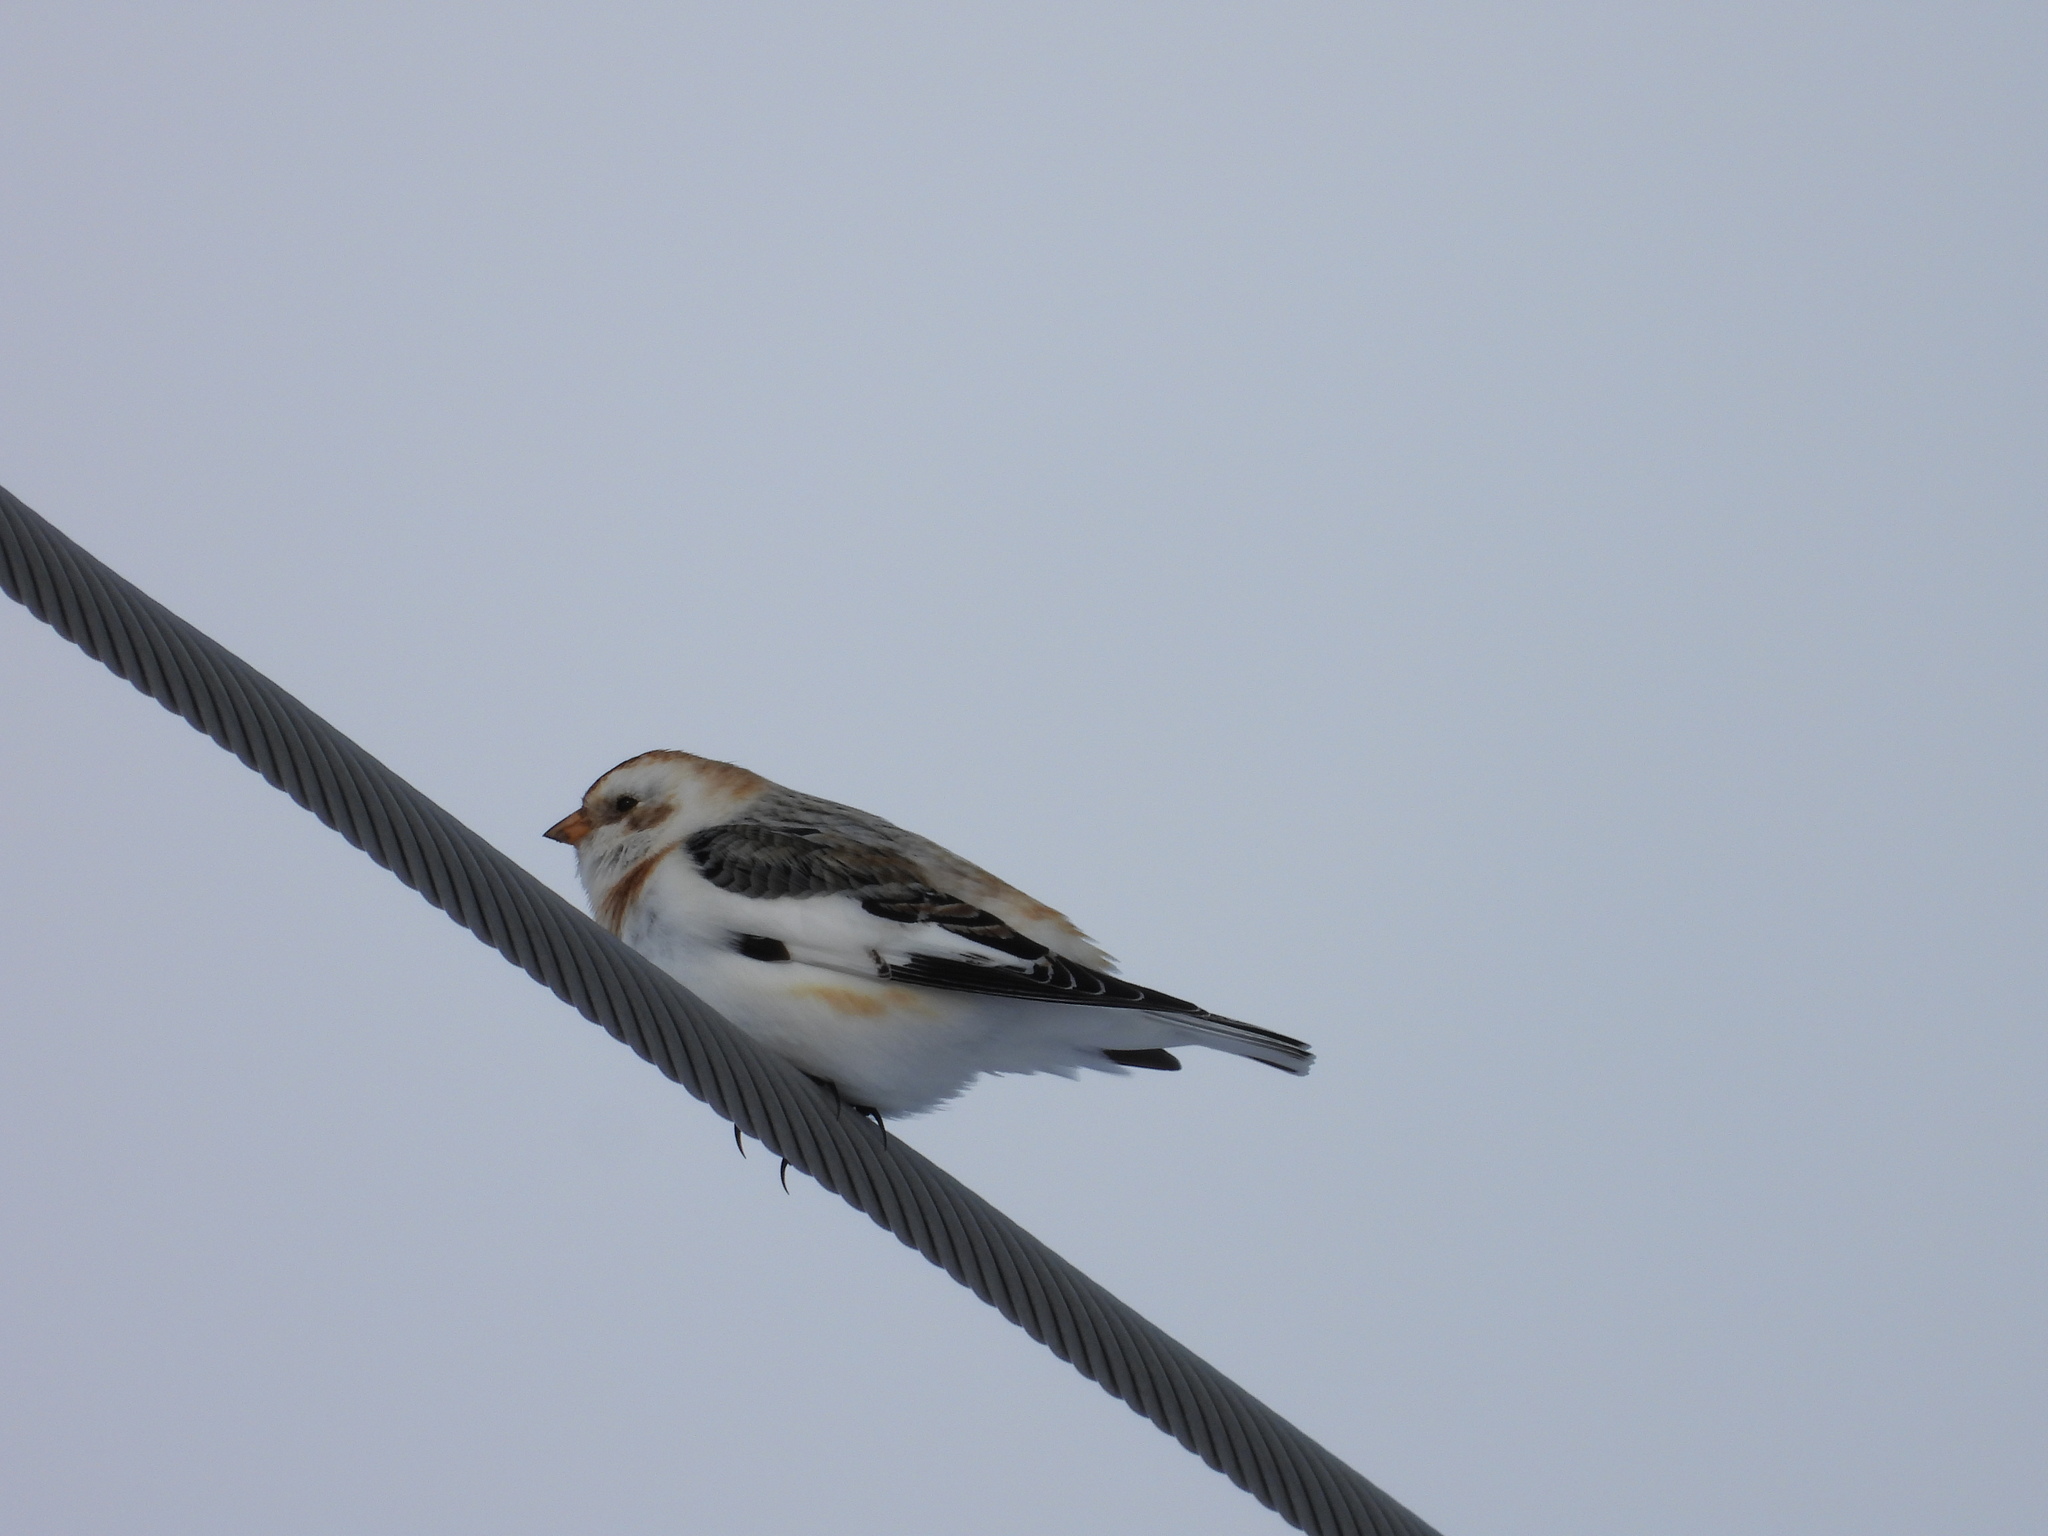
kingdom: Animalia
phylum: Chordata
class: Aves
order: Passeriformes
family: Calcariidae
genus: Plectrophenax
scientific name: Plectrophenax nivalis
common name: Snow bunting
